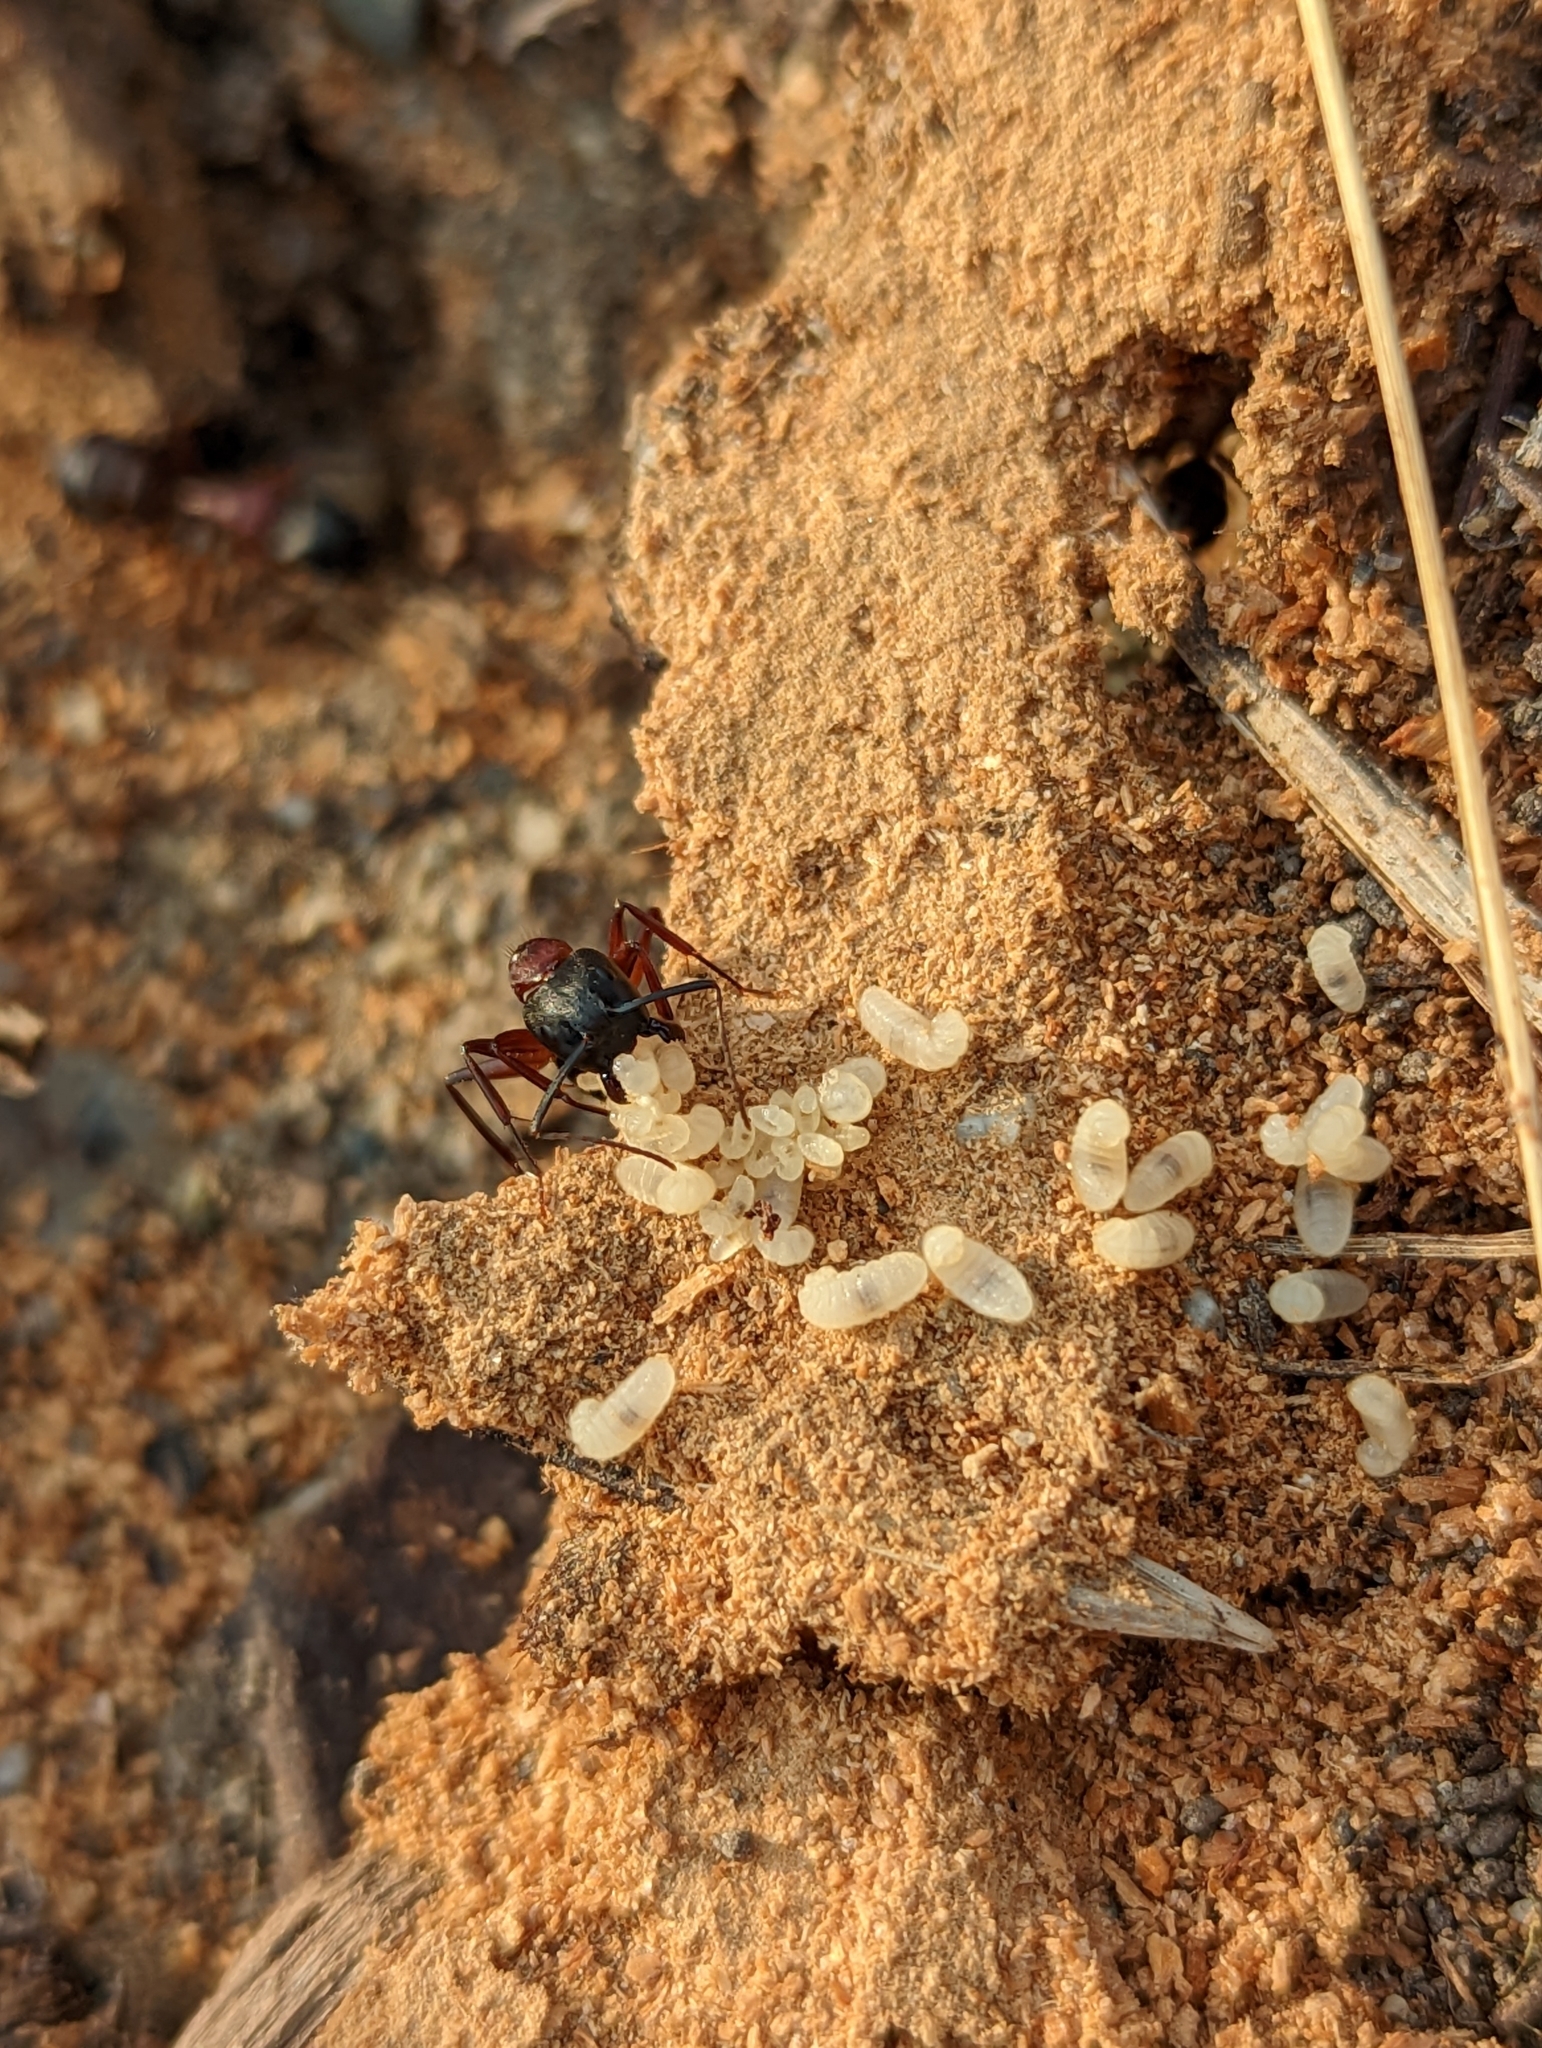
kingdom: Animalia
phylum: Arthropoda
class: Insecta
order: Hymenoptera
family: Formicidae
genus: Camponotus
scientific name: Camponotus vicinus
